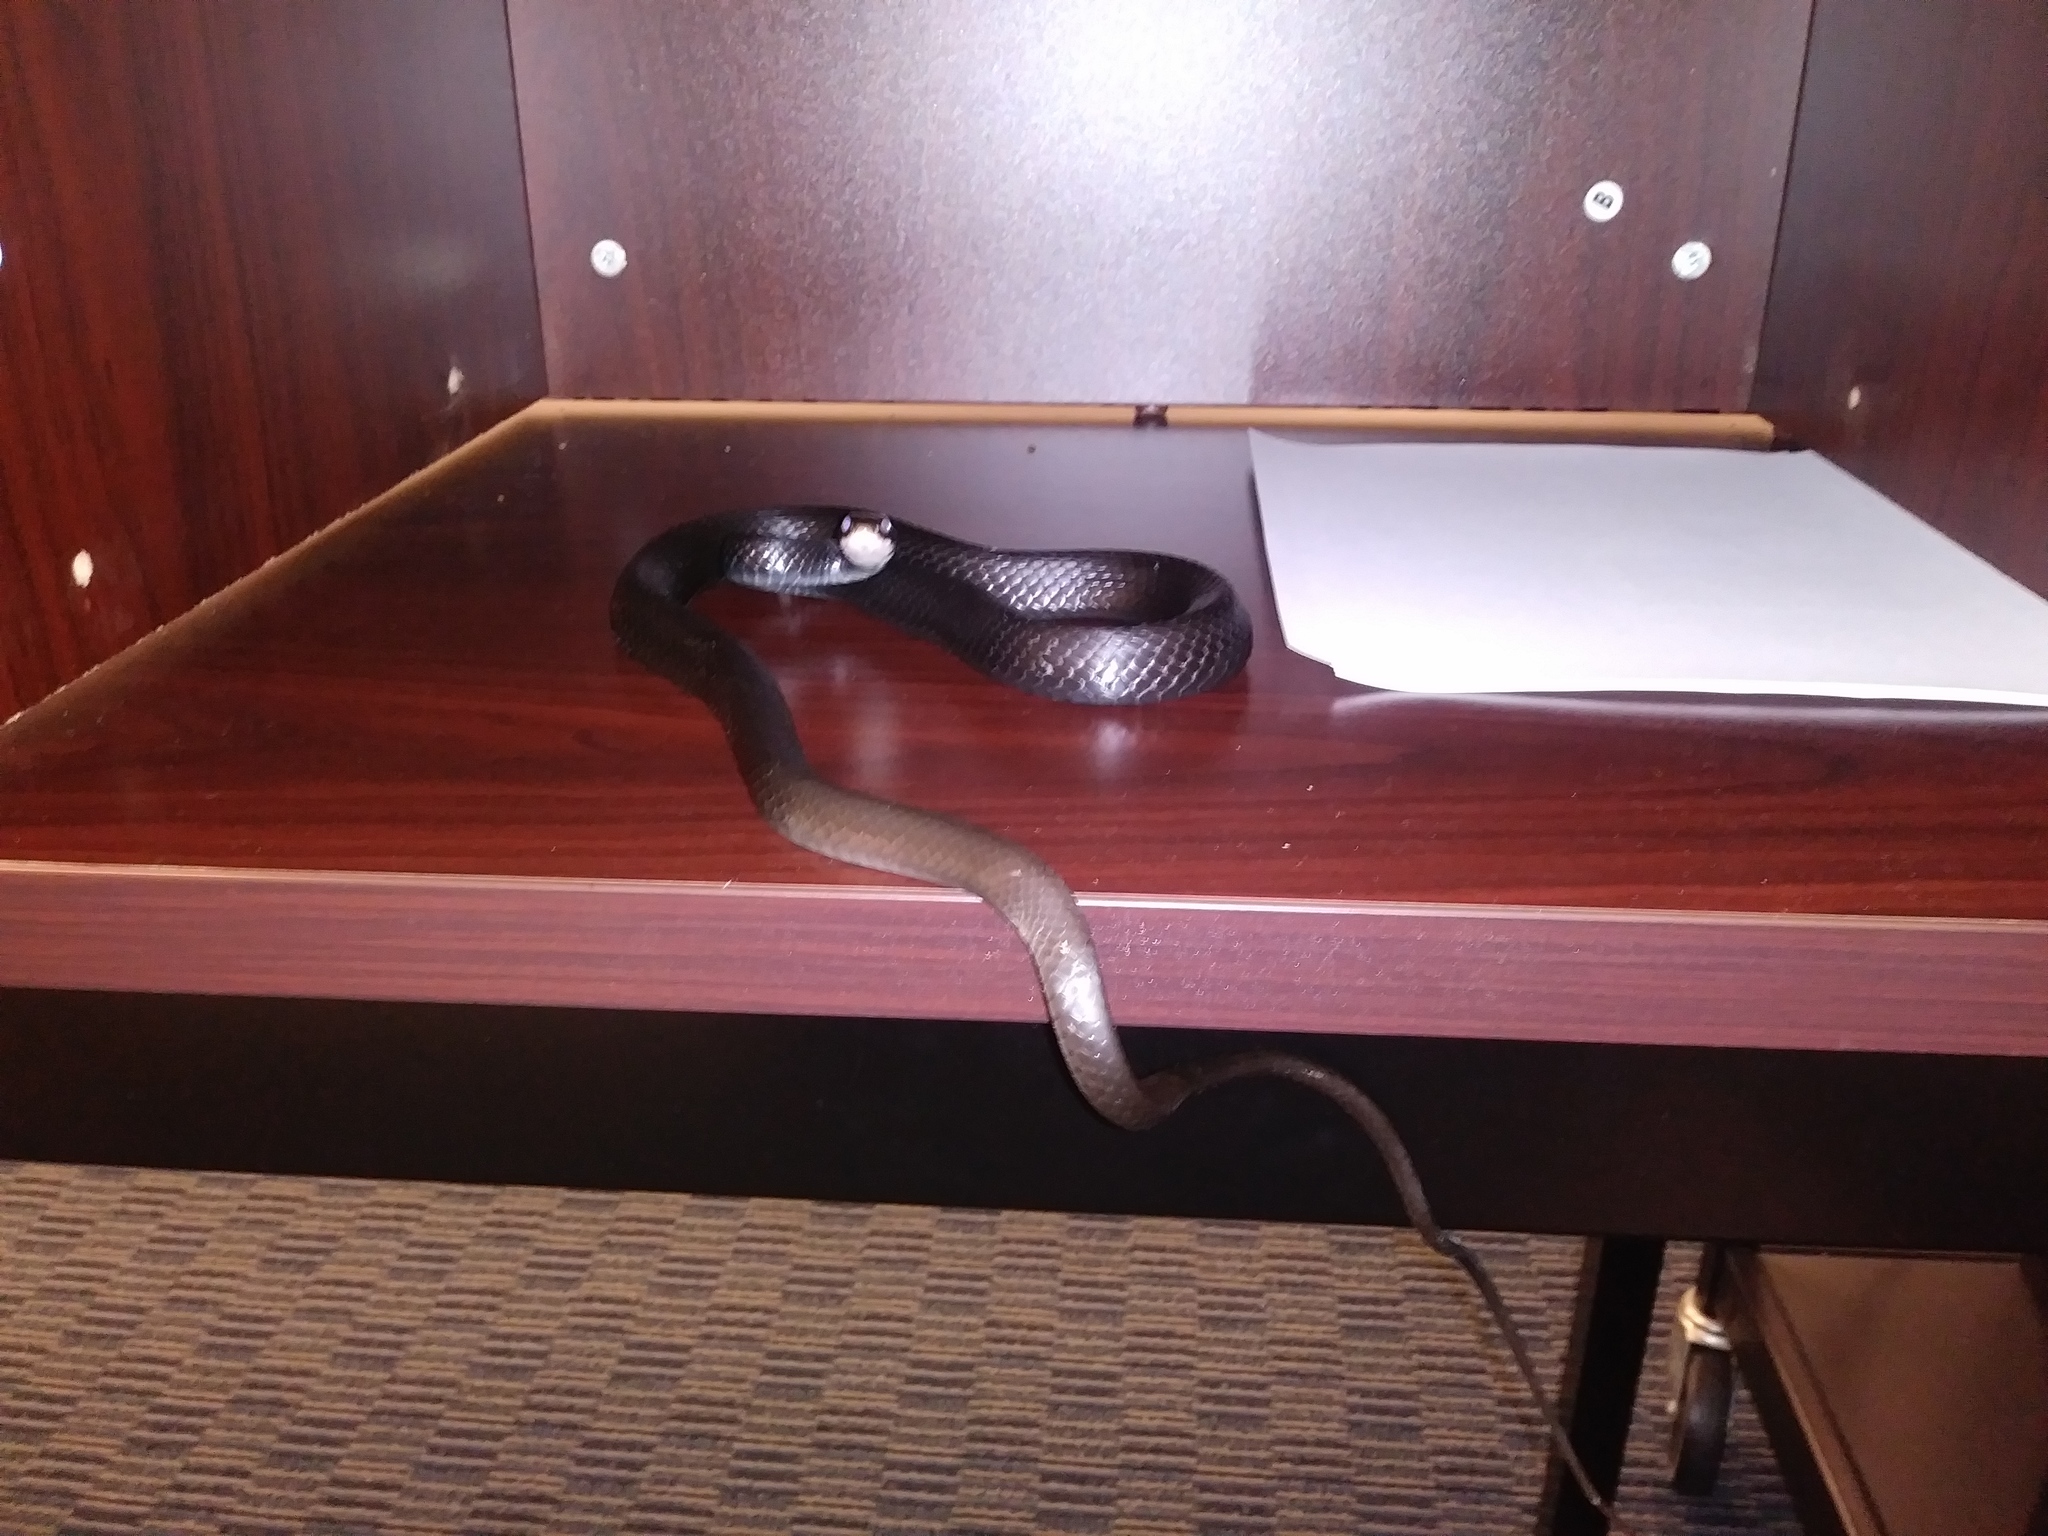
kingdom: Animalia
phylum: Chordata
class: Squamata
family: Colubridae
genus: Coluber
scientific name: Coluber constrictor
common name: Eastern racer
